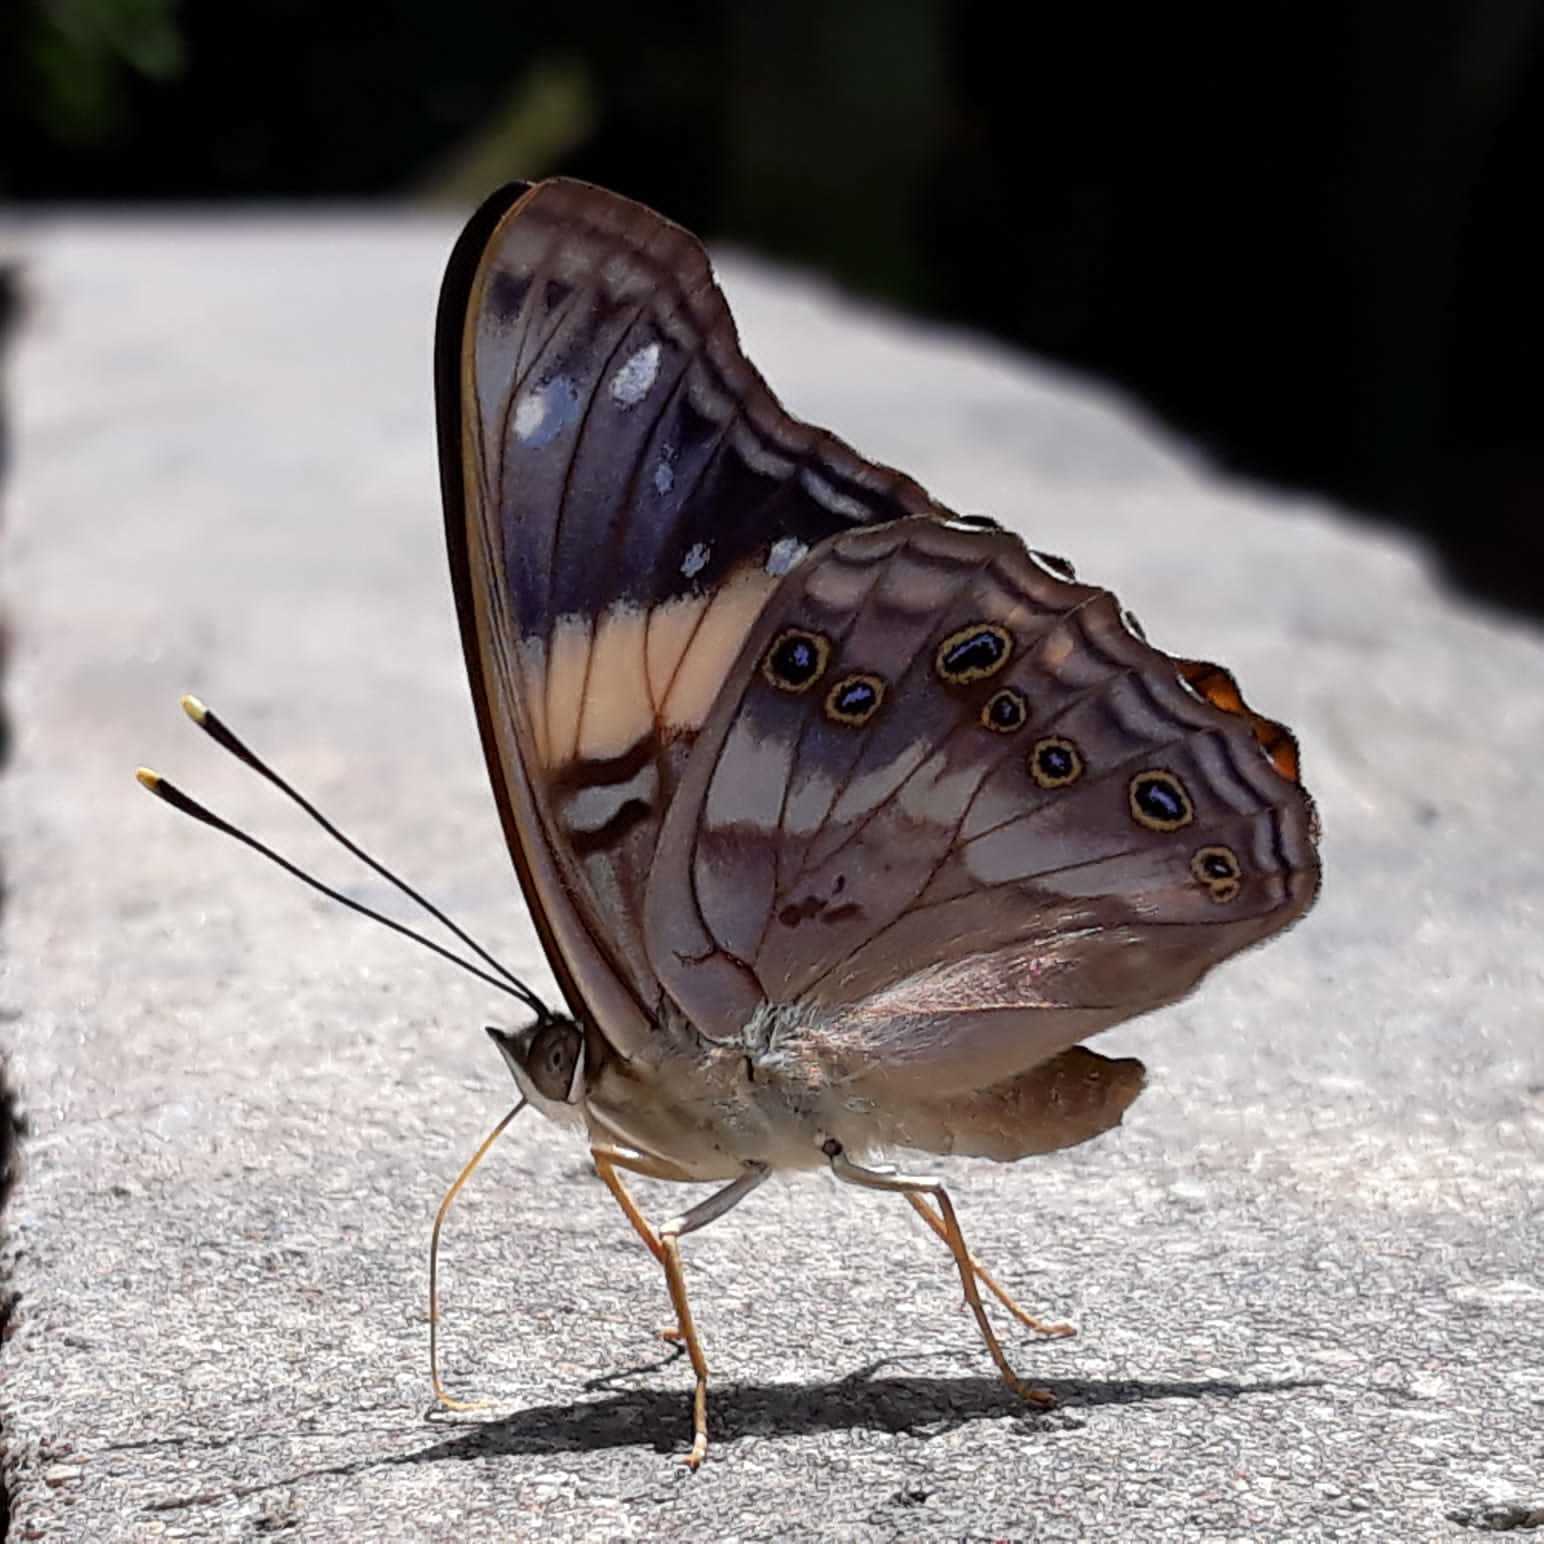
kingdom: Animalia
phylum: Arthropoda
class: Insecta
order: Lepidoptera
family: Nymphalidae
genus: Asterocampa
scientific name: Asterocampa idyja
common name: Dusky emperor
